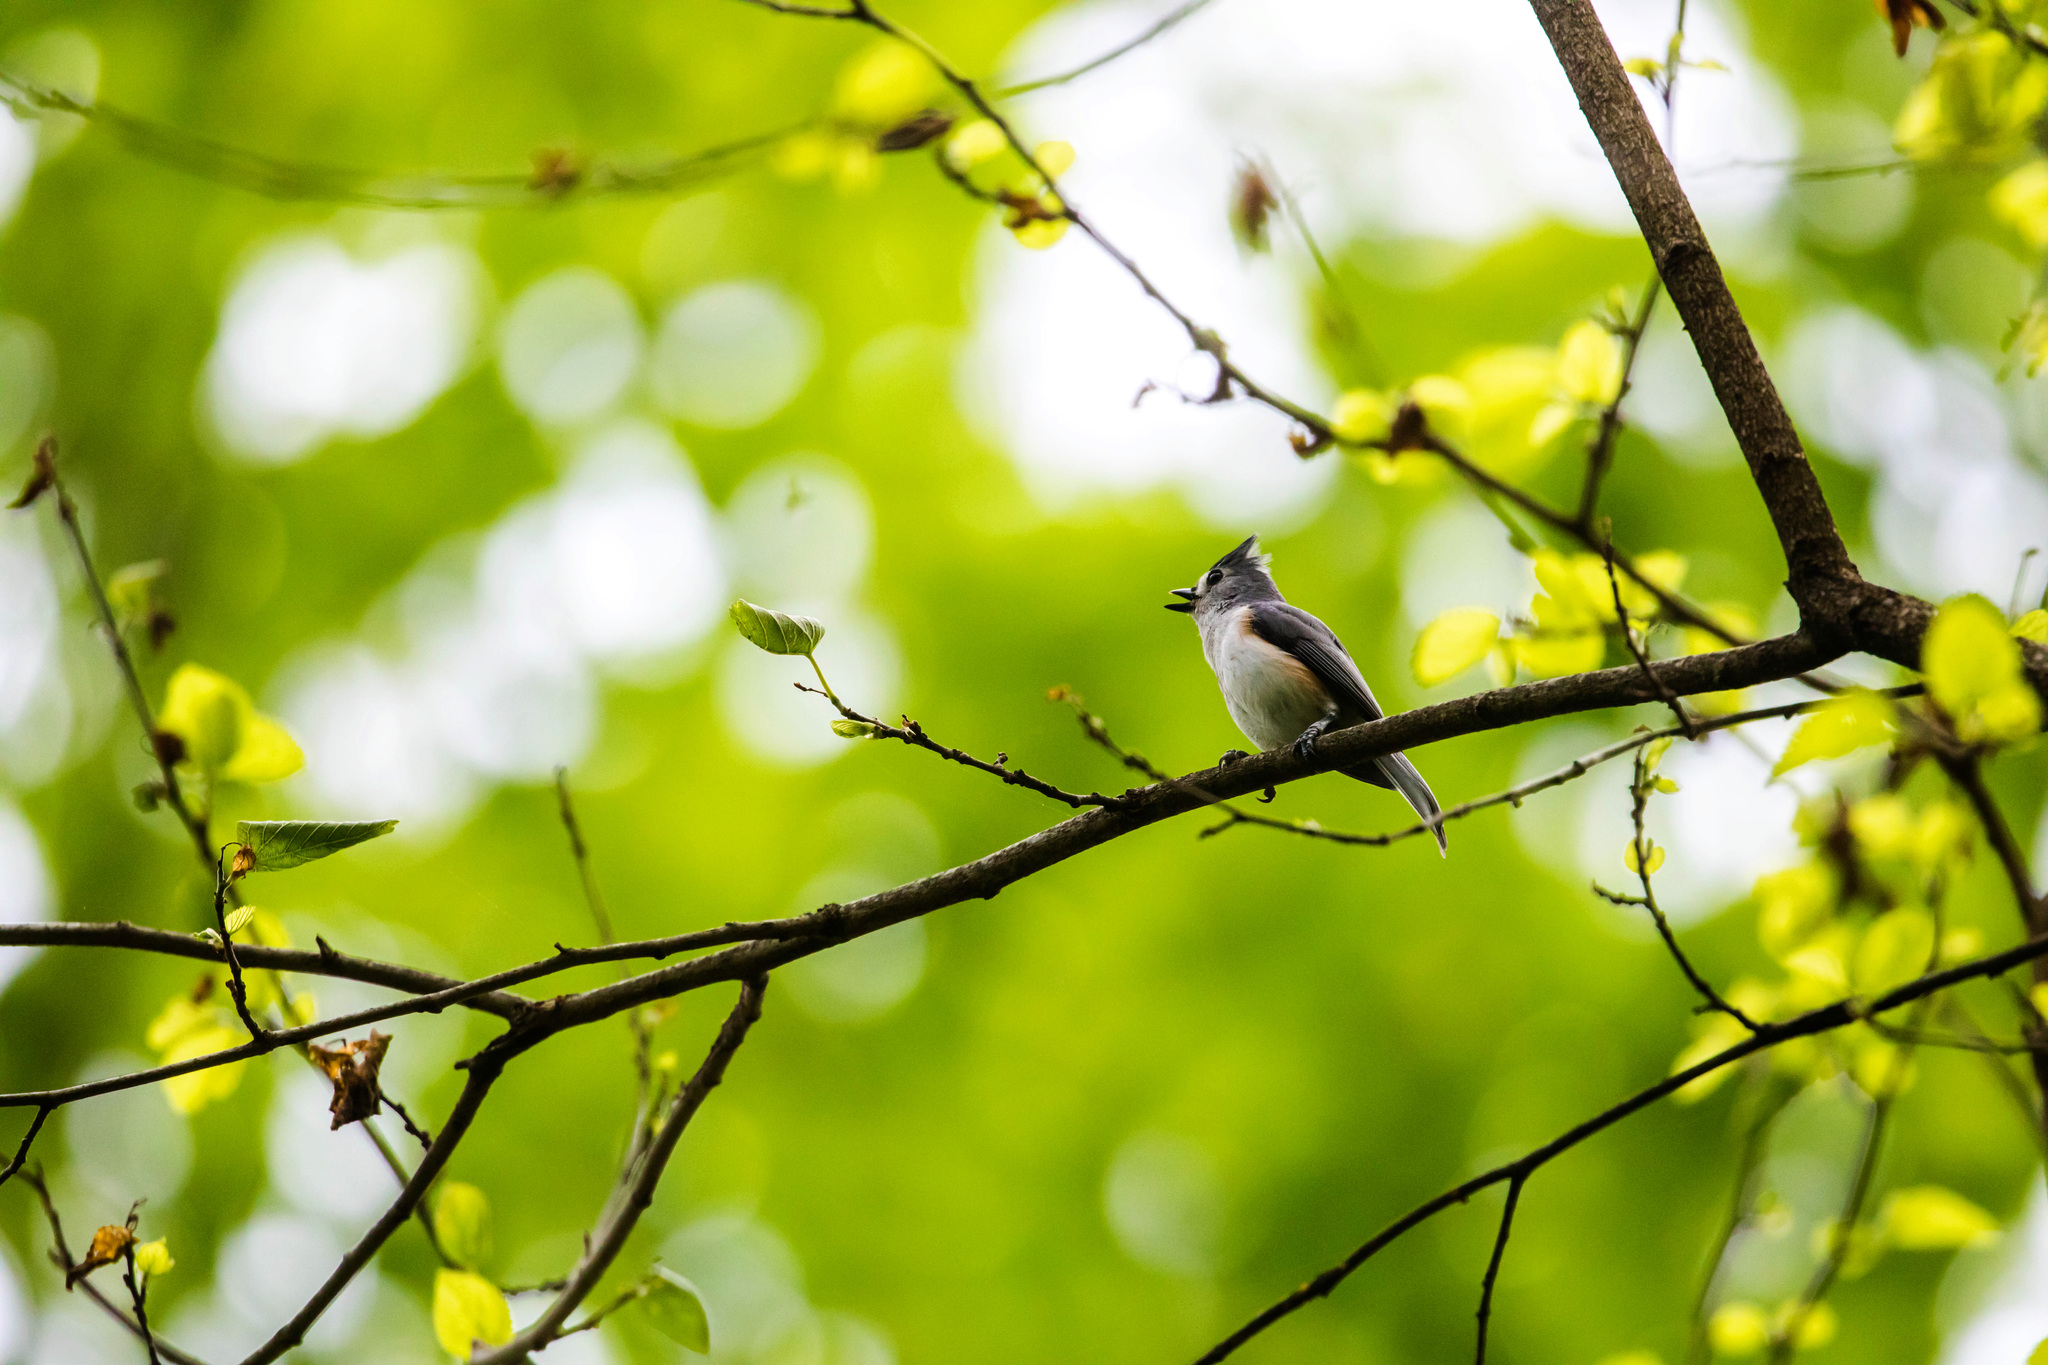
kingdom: Animalia
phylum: Chordata
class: Aves
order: Passeriformes
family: Paridae
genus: Baeolophus
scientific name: Baeolophus bicolor
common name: Tufted titmouse
